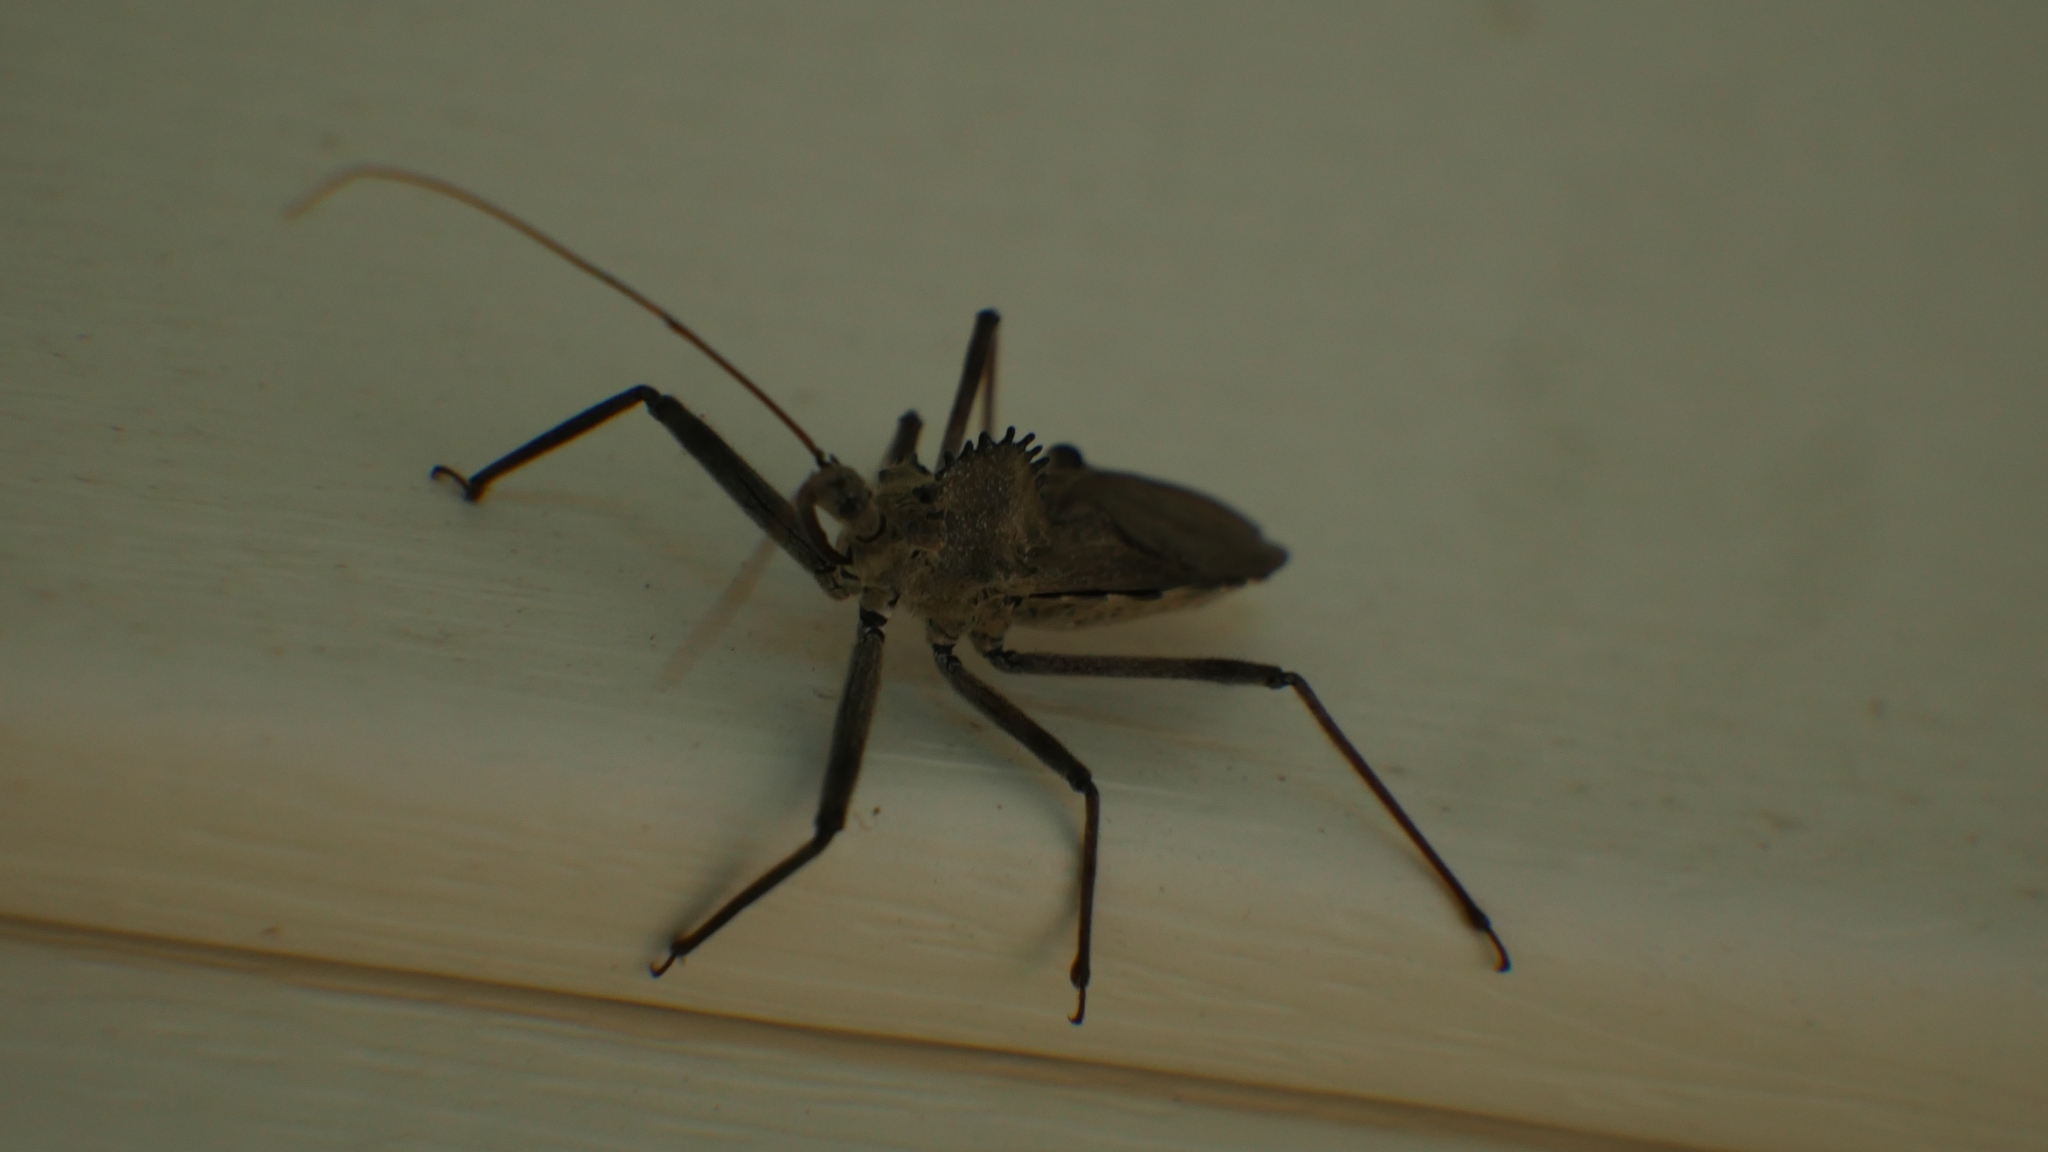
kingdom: Animalia
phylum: Arthropoda
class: Insecta
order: Hemiptera
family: Reduviidae
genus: Arilus
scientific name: Arilus cristatus
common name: North american wheel bug
